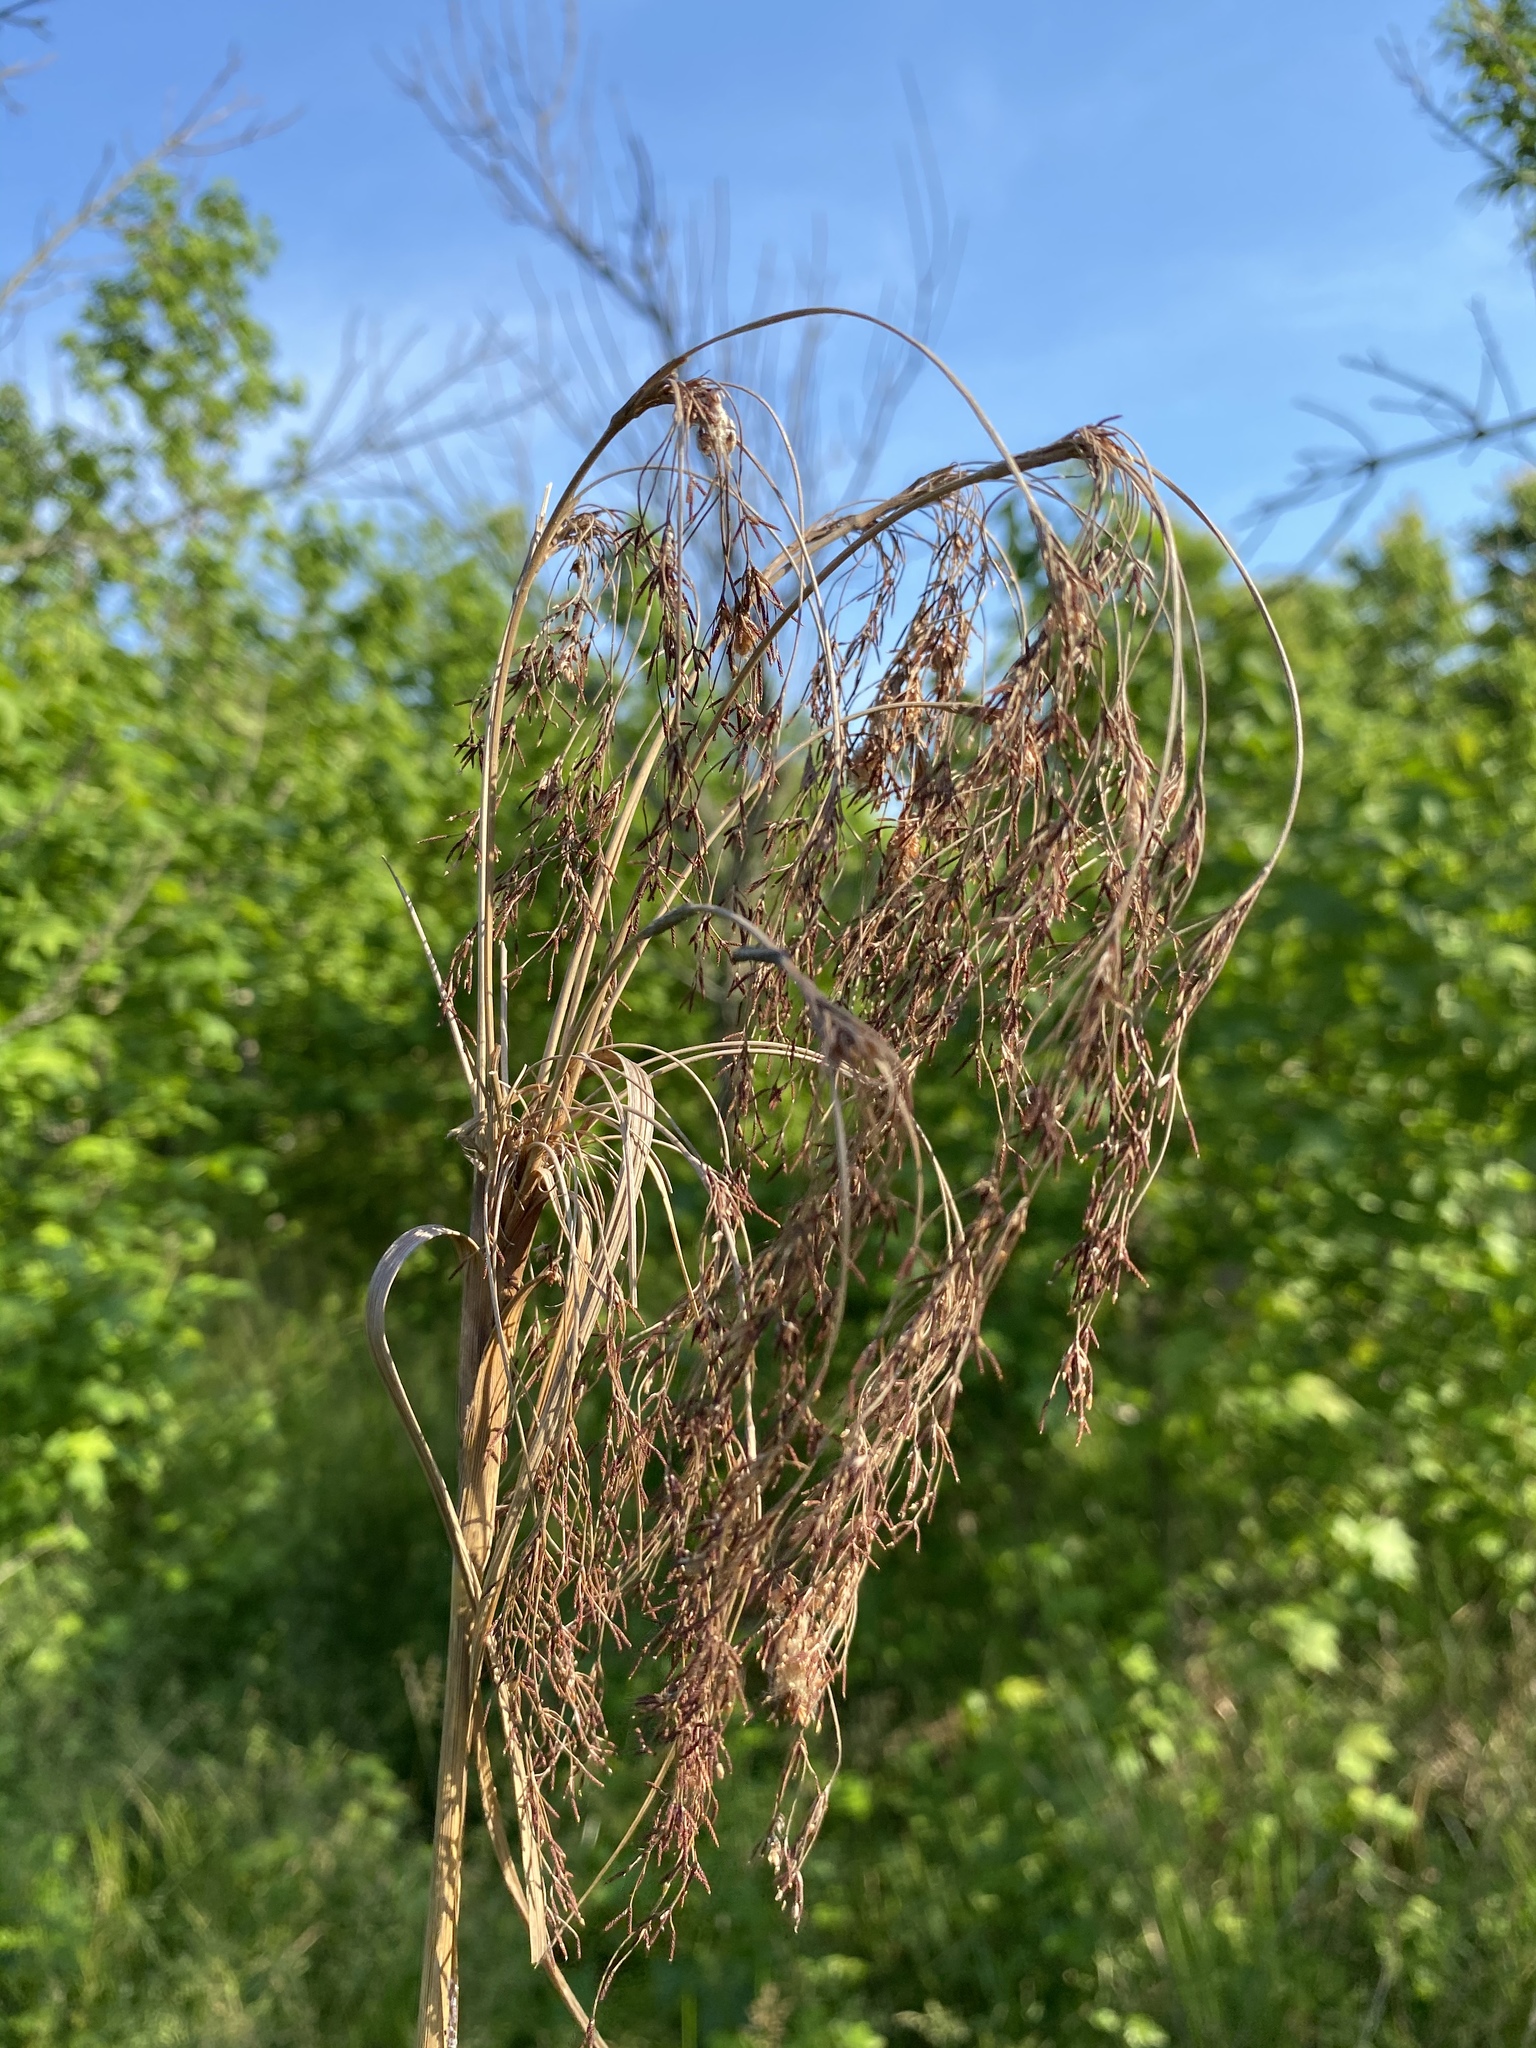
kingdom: Plantae
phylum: Tracheophyta
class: Liliopsida
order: Poales
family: Cyperaceae
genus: Scirpus
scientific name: Scirpus cyperinus
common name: Black-sheathed bulrush
